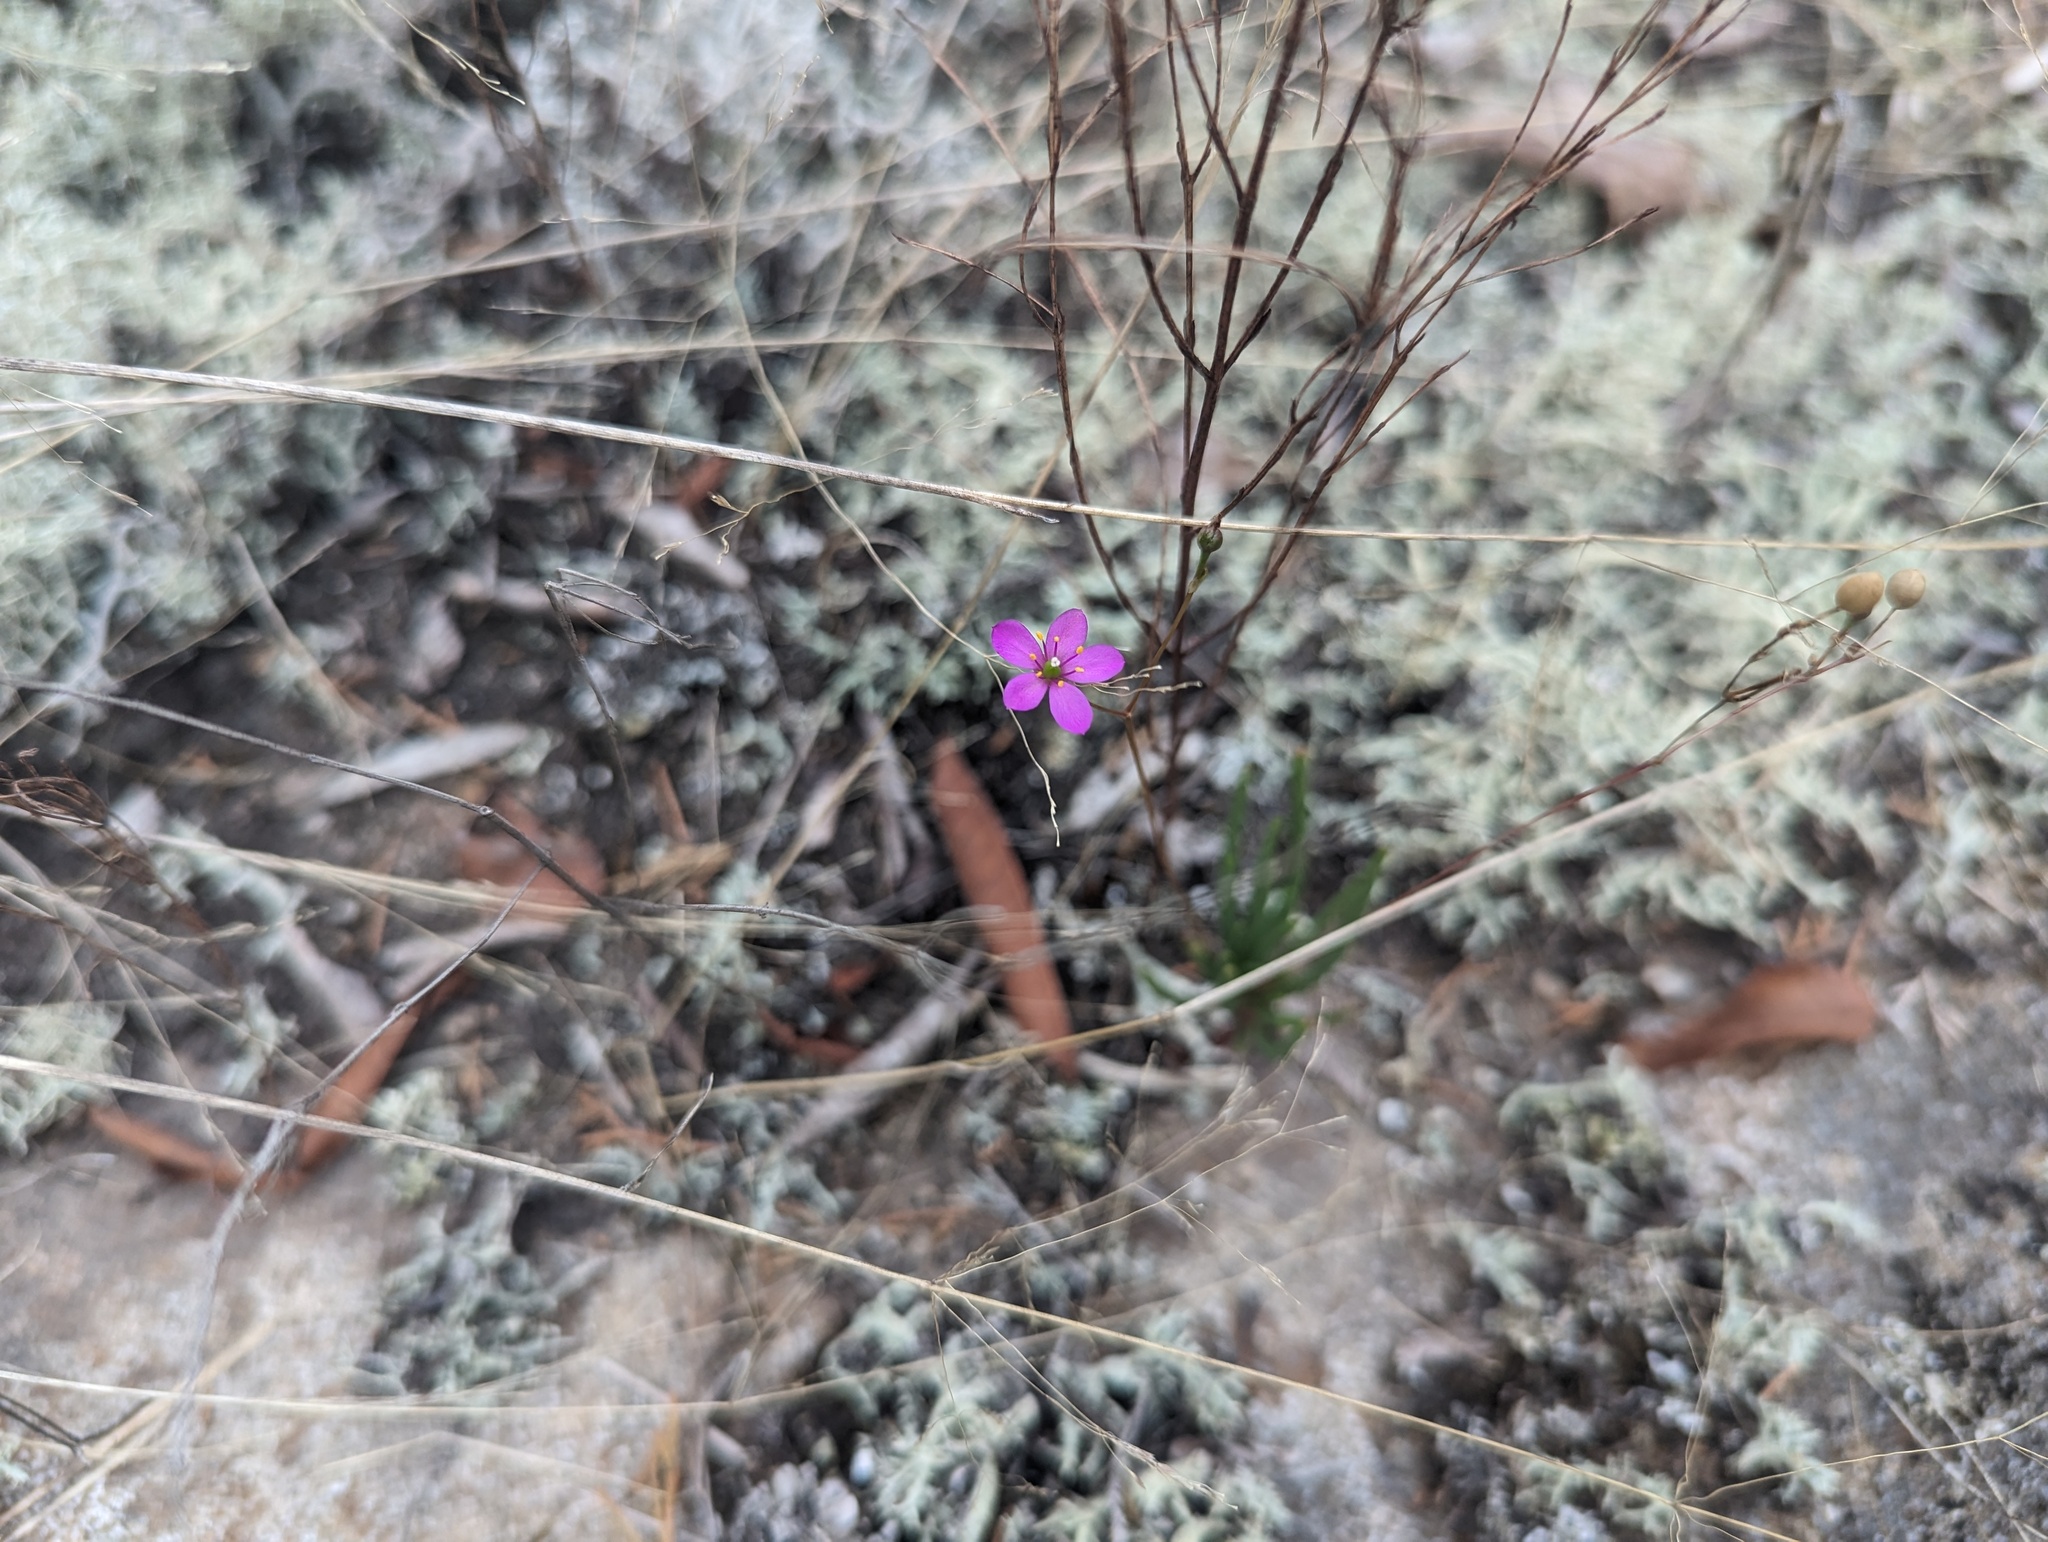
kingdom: Plantae
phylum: Tracheophyta
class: Magnoliopsida
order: Caryophyllales
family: Montiaceae
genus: Phemeranthus
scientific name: Phemeranthus parviflorus
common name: Sunbright
